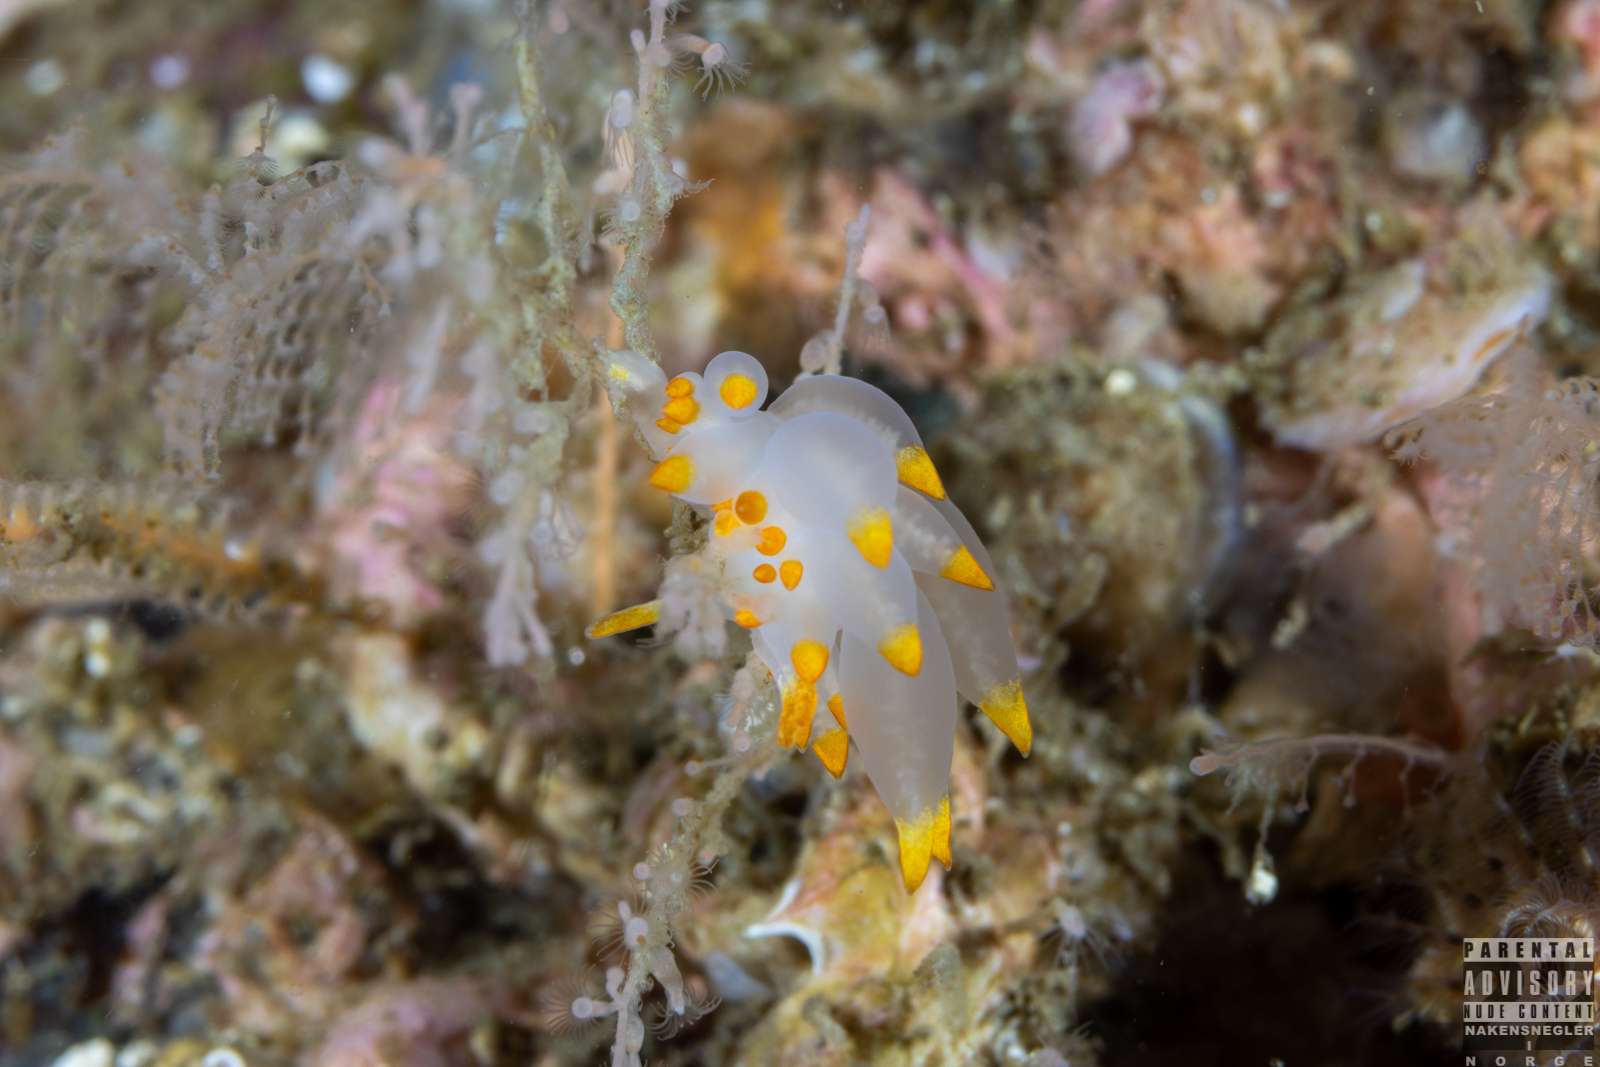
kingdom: Animalia
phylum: Mollusca
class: Gastropoda
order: Nudibranchia
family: Eubranchidae
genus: Amphorina
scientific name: Amphorina farrani
